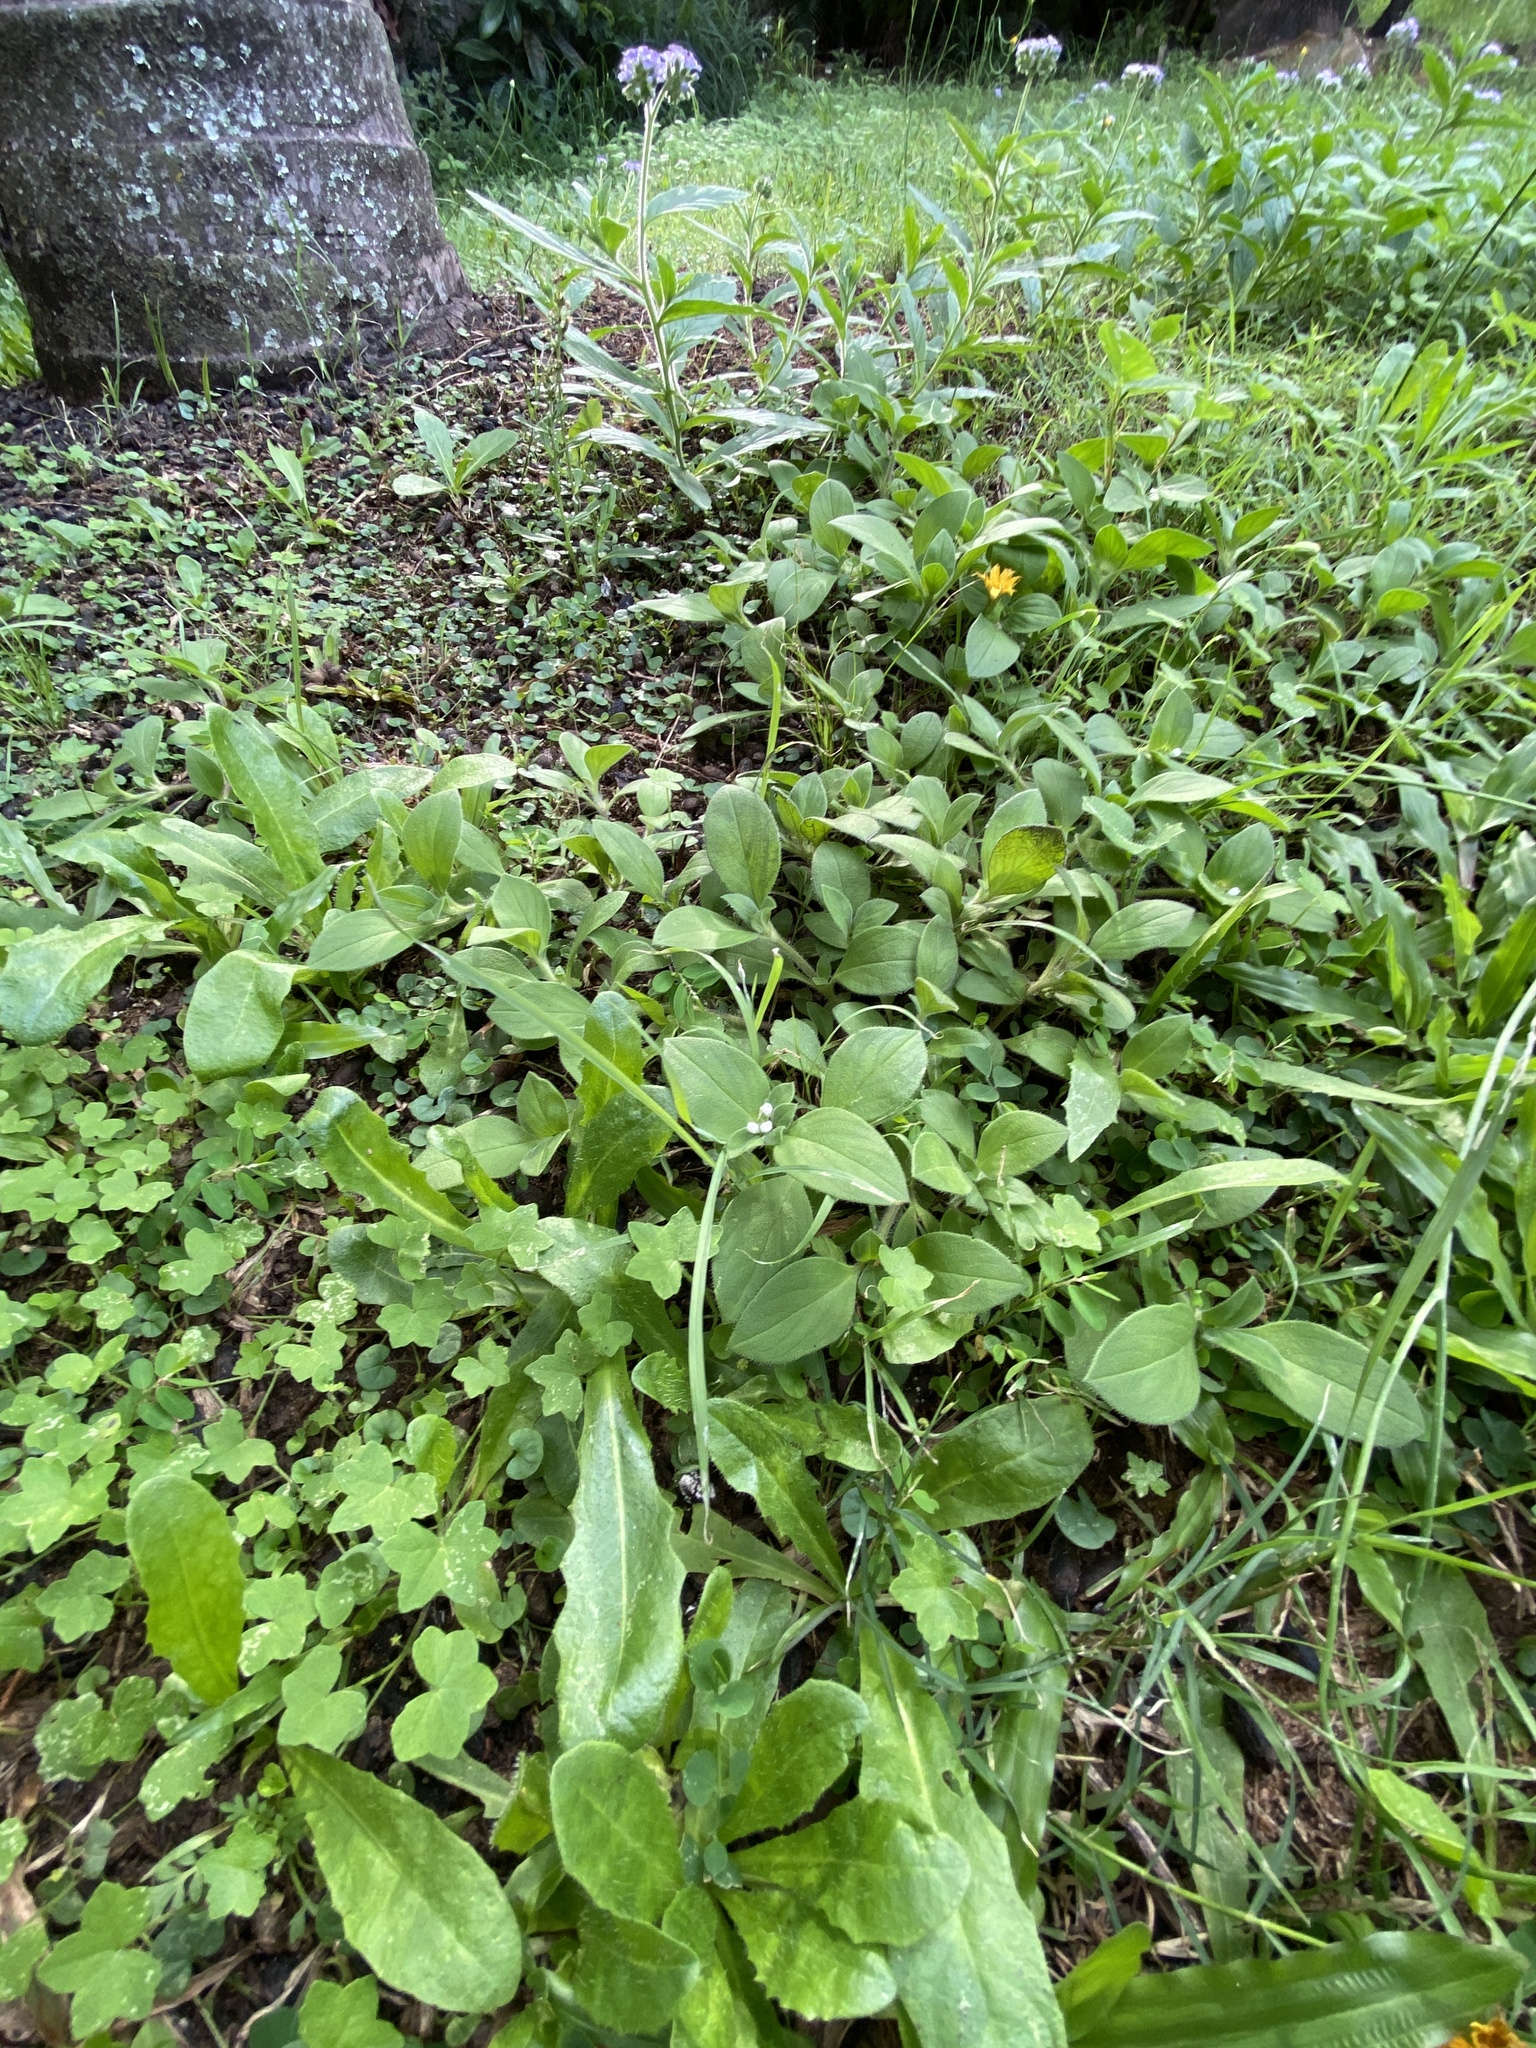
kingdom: Plantae
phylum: Tracheophyta
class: Magnoliopsida
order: Gentianales
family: Rubiaceae
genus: Richardia
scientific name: Richardia brasiliensis
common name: Tropical mexican clover
